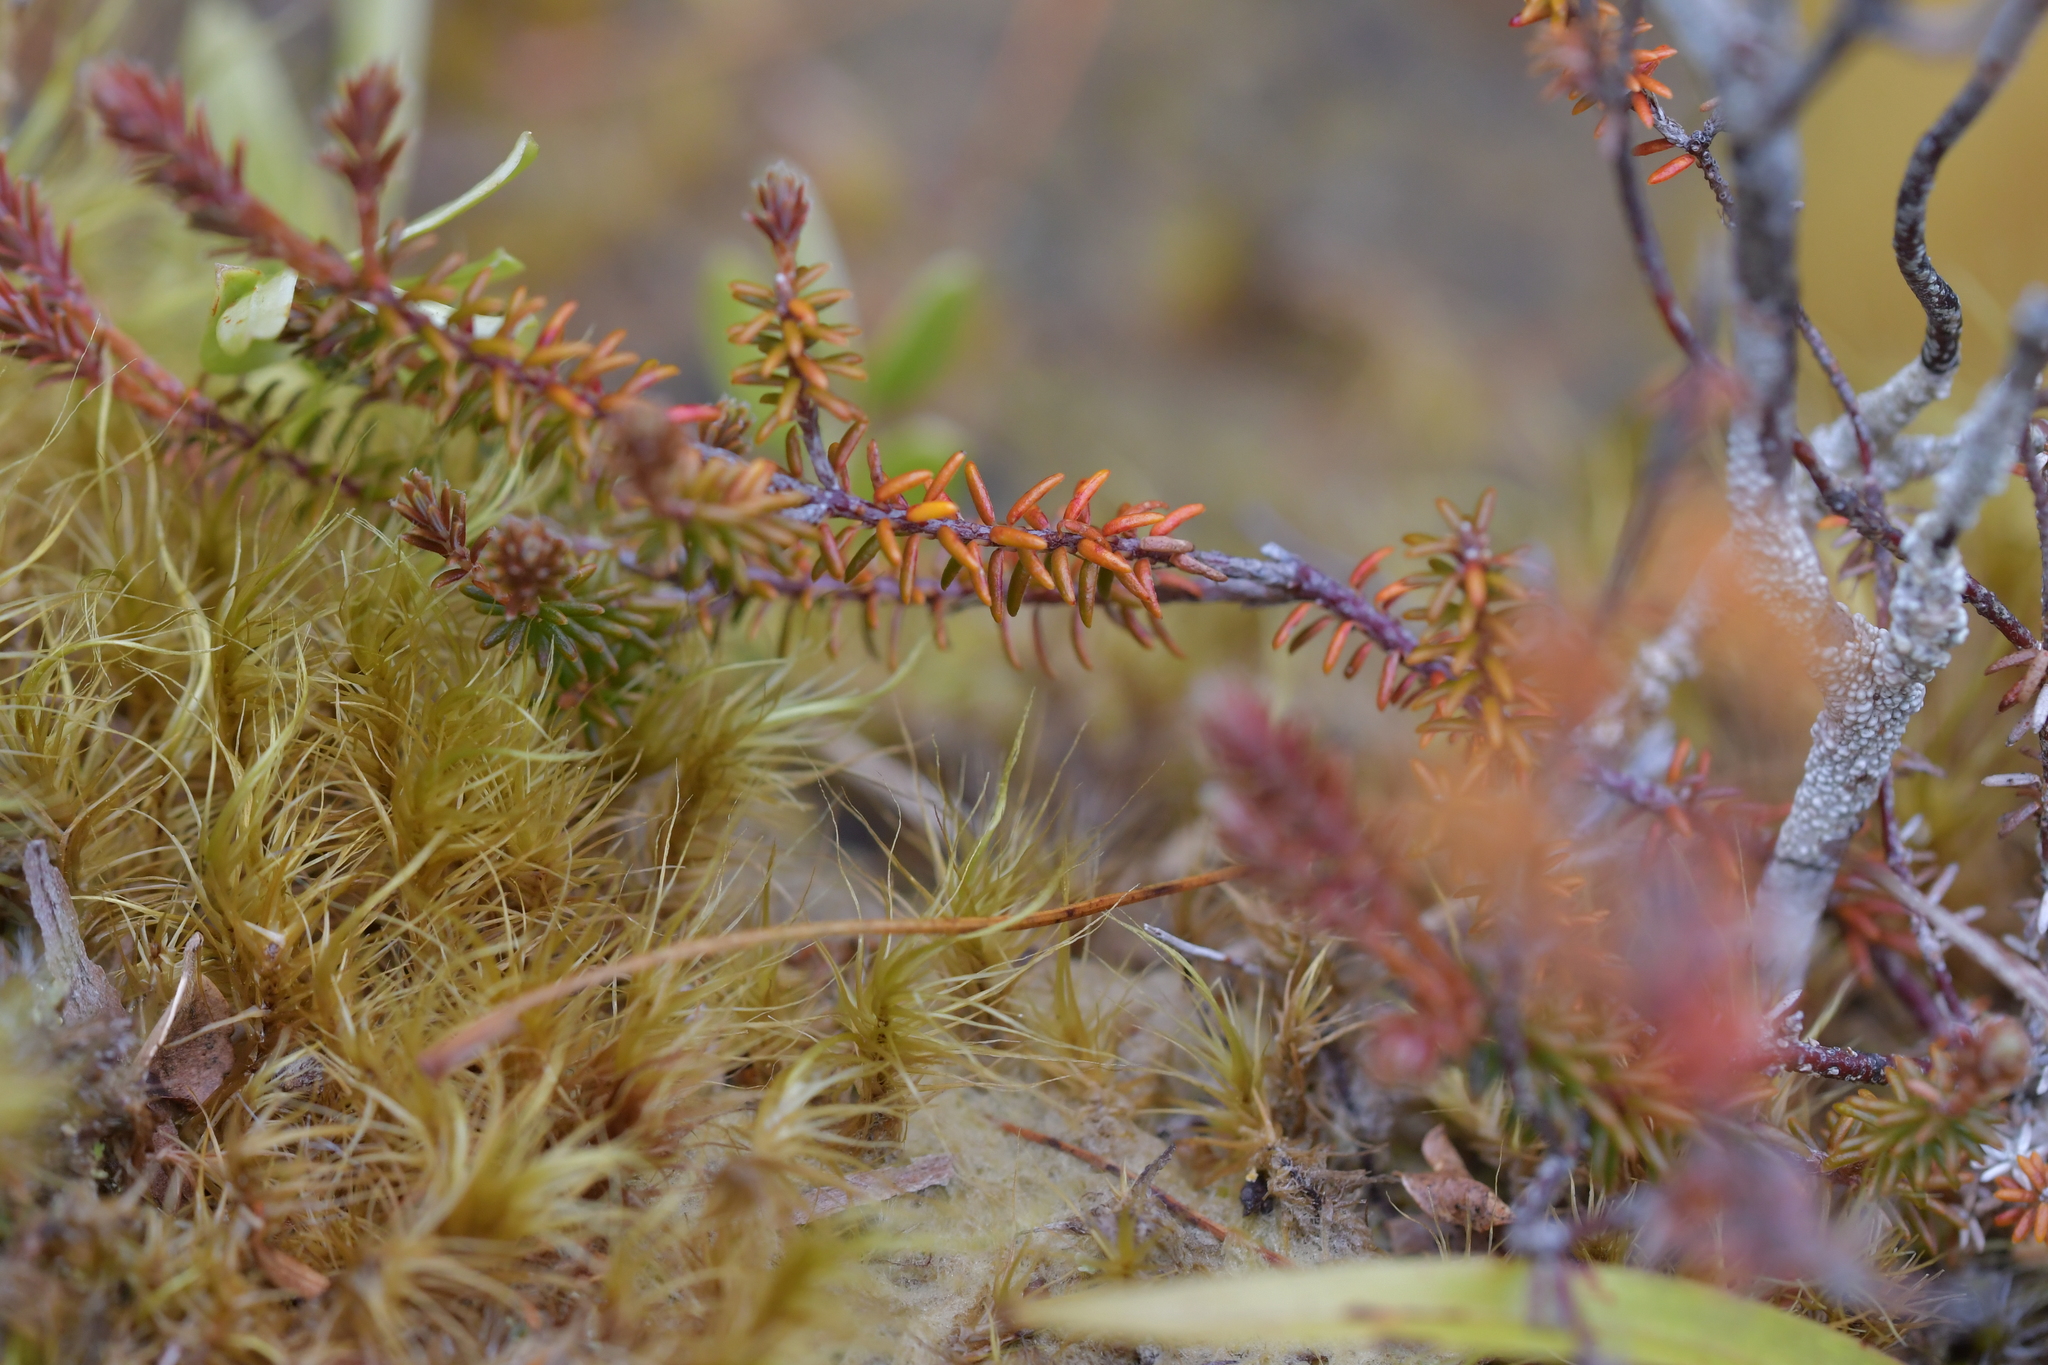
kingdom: Plantae
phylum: Tracheophyta
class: Magnoliopsida
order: Ericales
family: Ericaceae
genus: Androstoma
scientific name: Androstoma empetrifolia
